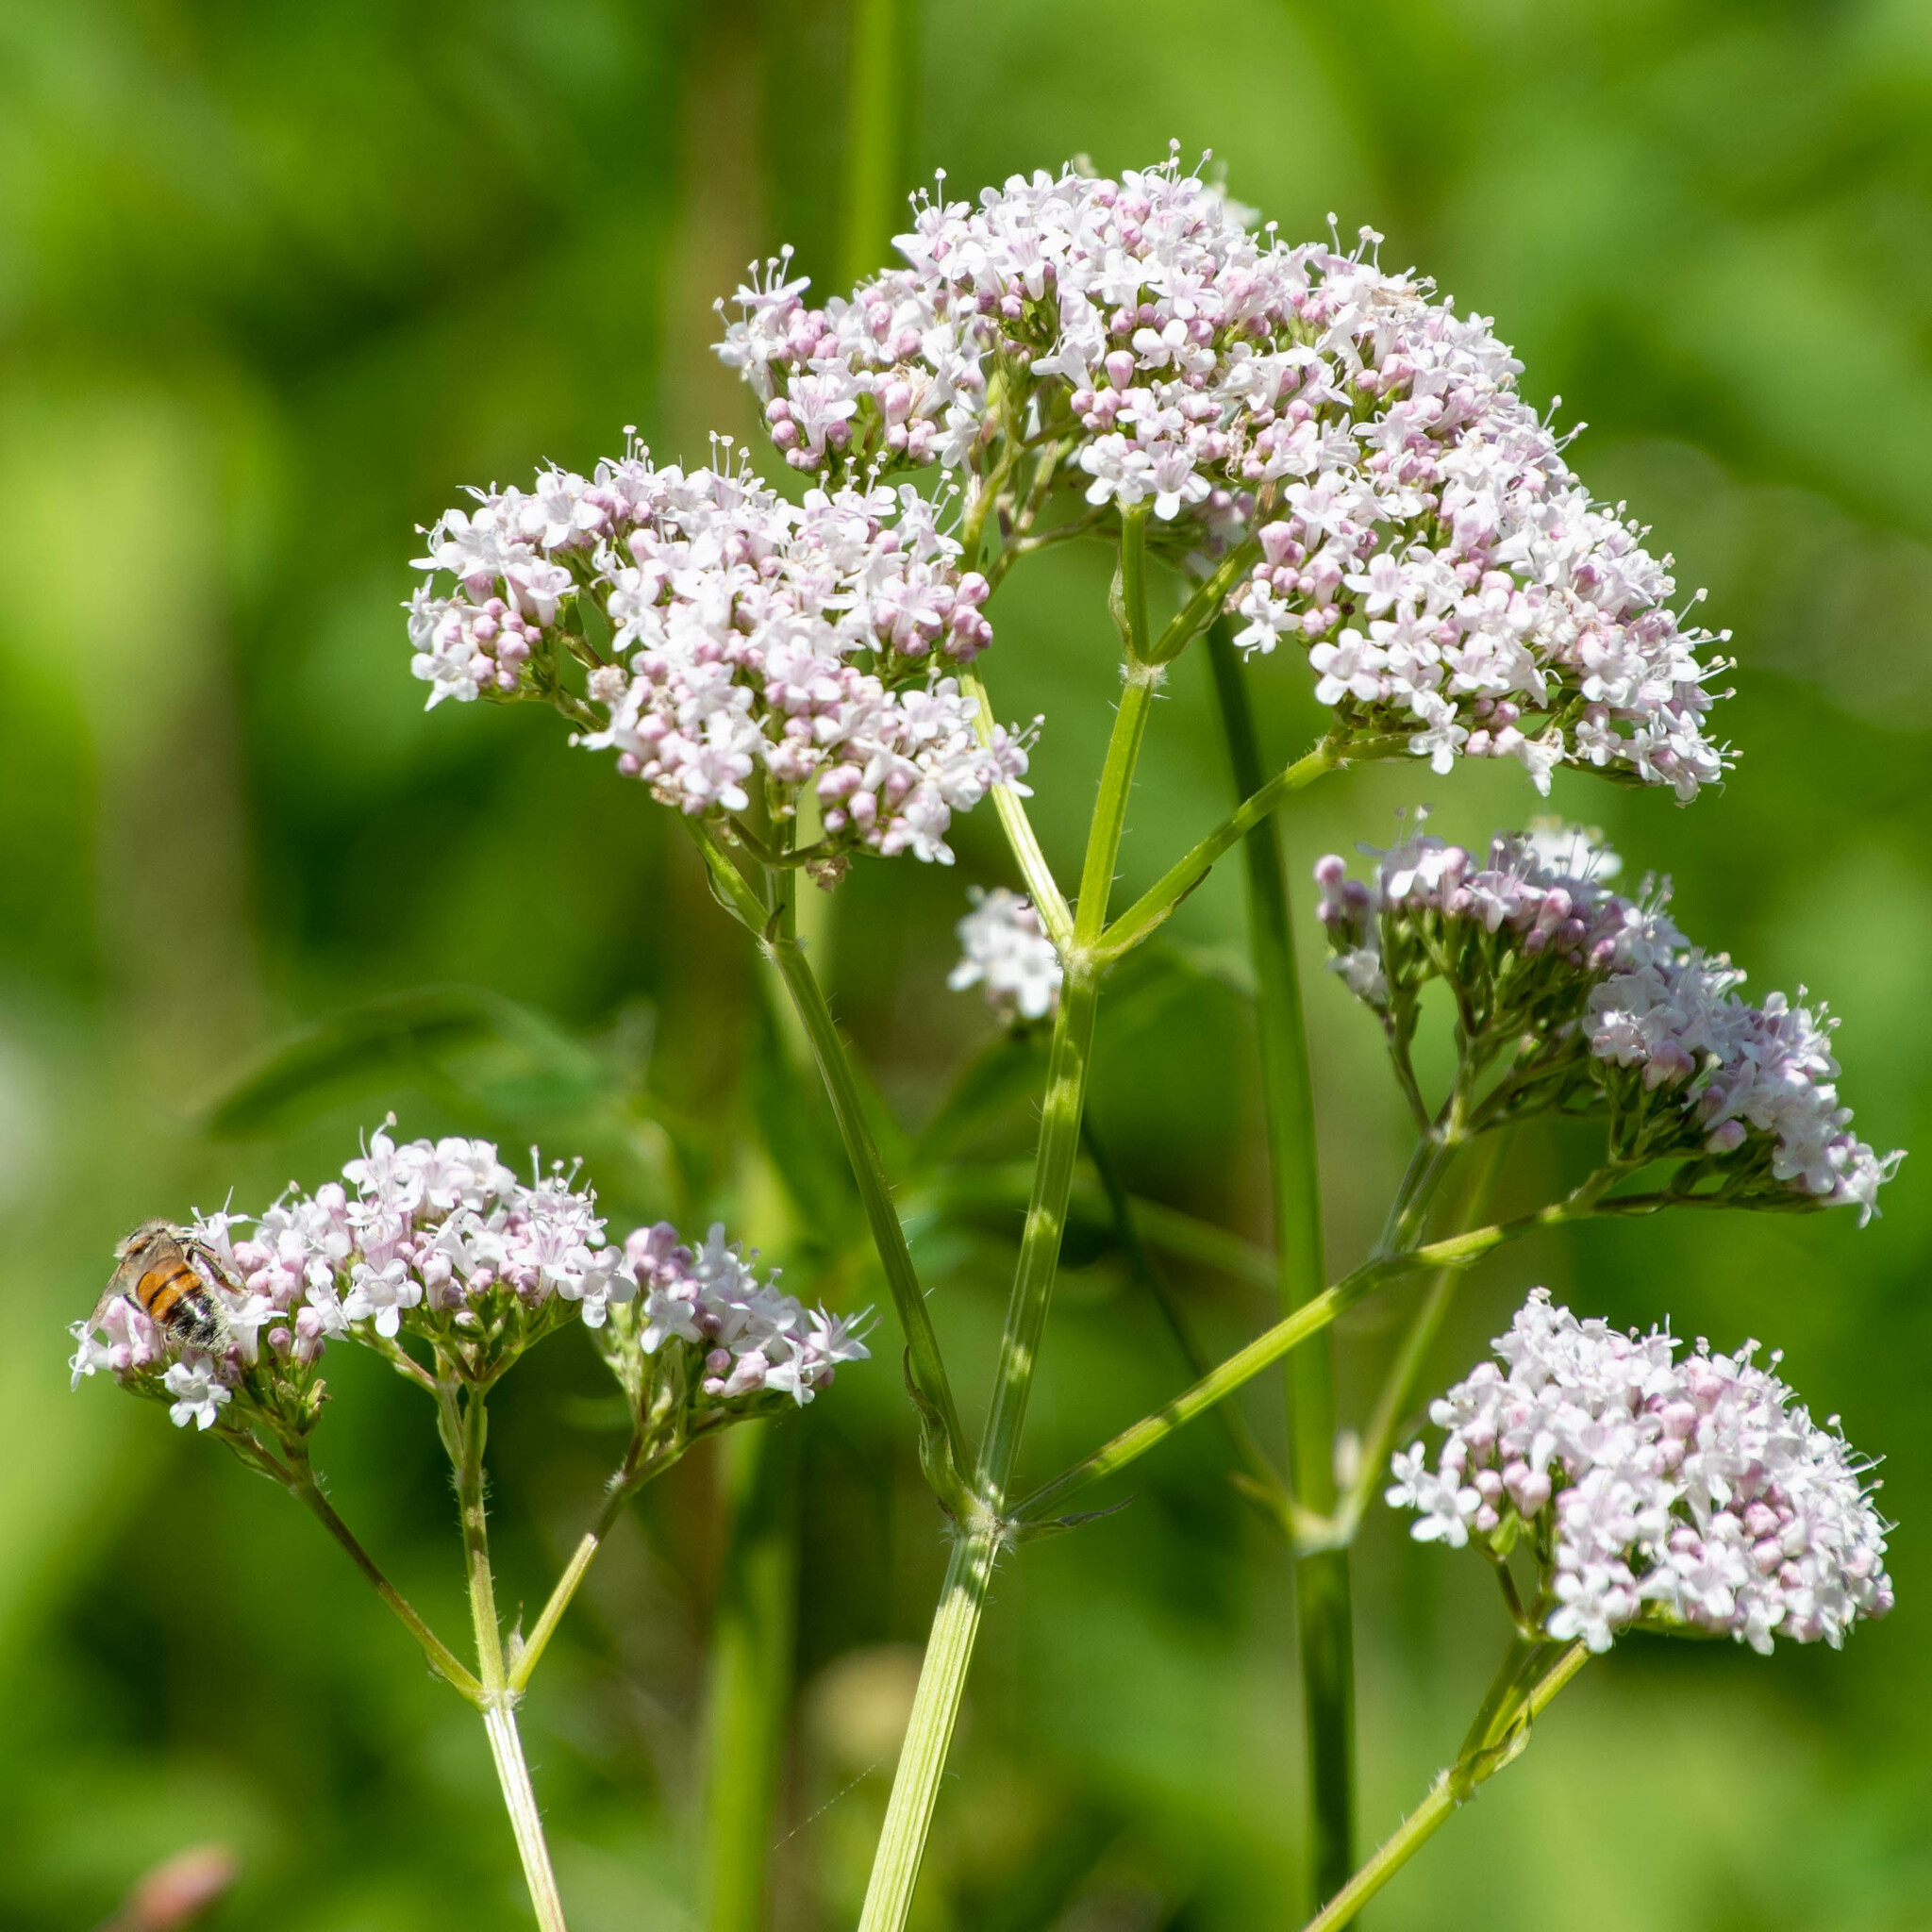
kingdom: Plantae
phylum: Tracheophyta
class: Magnoliopsida
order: Dipsacales
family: Caprifoliaceae
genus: Valeriana
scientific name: Valeriana officinalis
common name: Common valerian
